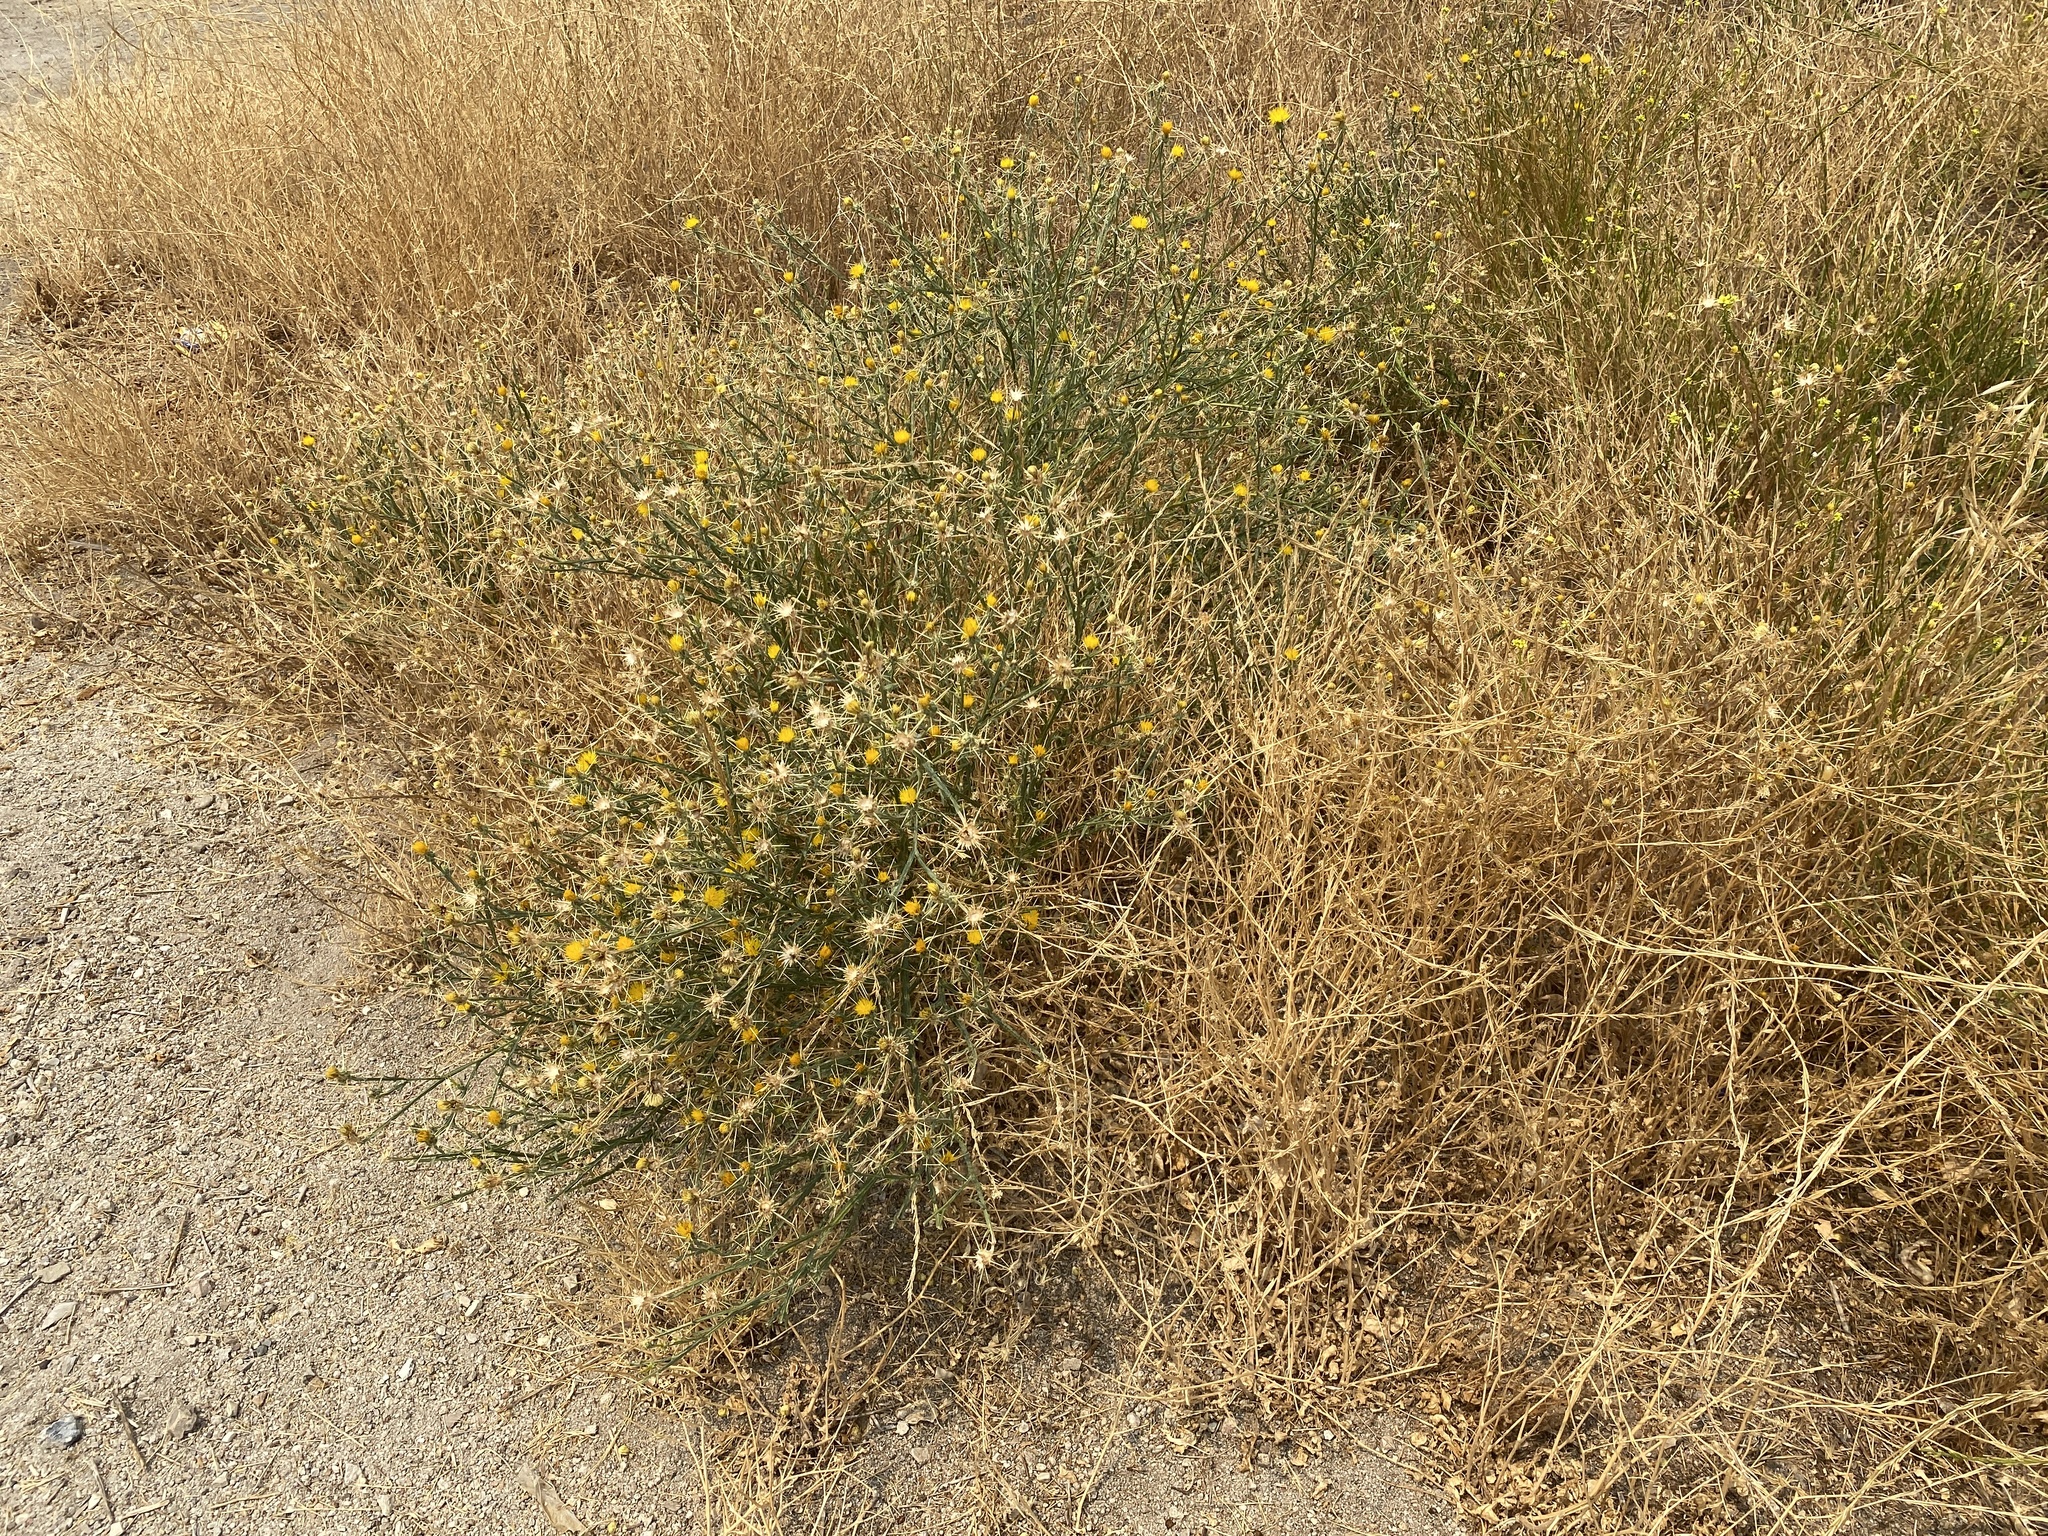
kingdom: Plantae
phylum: Tracheophyta
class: Magnoliopsida
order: Asterales
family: Asteraceae
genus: Centaurea
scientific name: Centaurea solstitialis
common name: Yellow star-thistle
